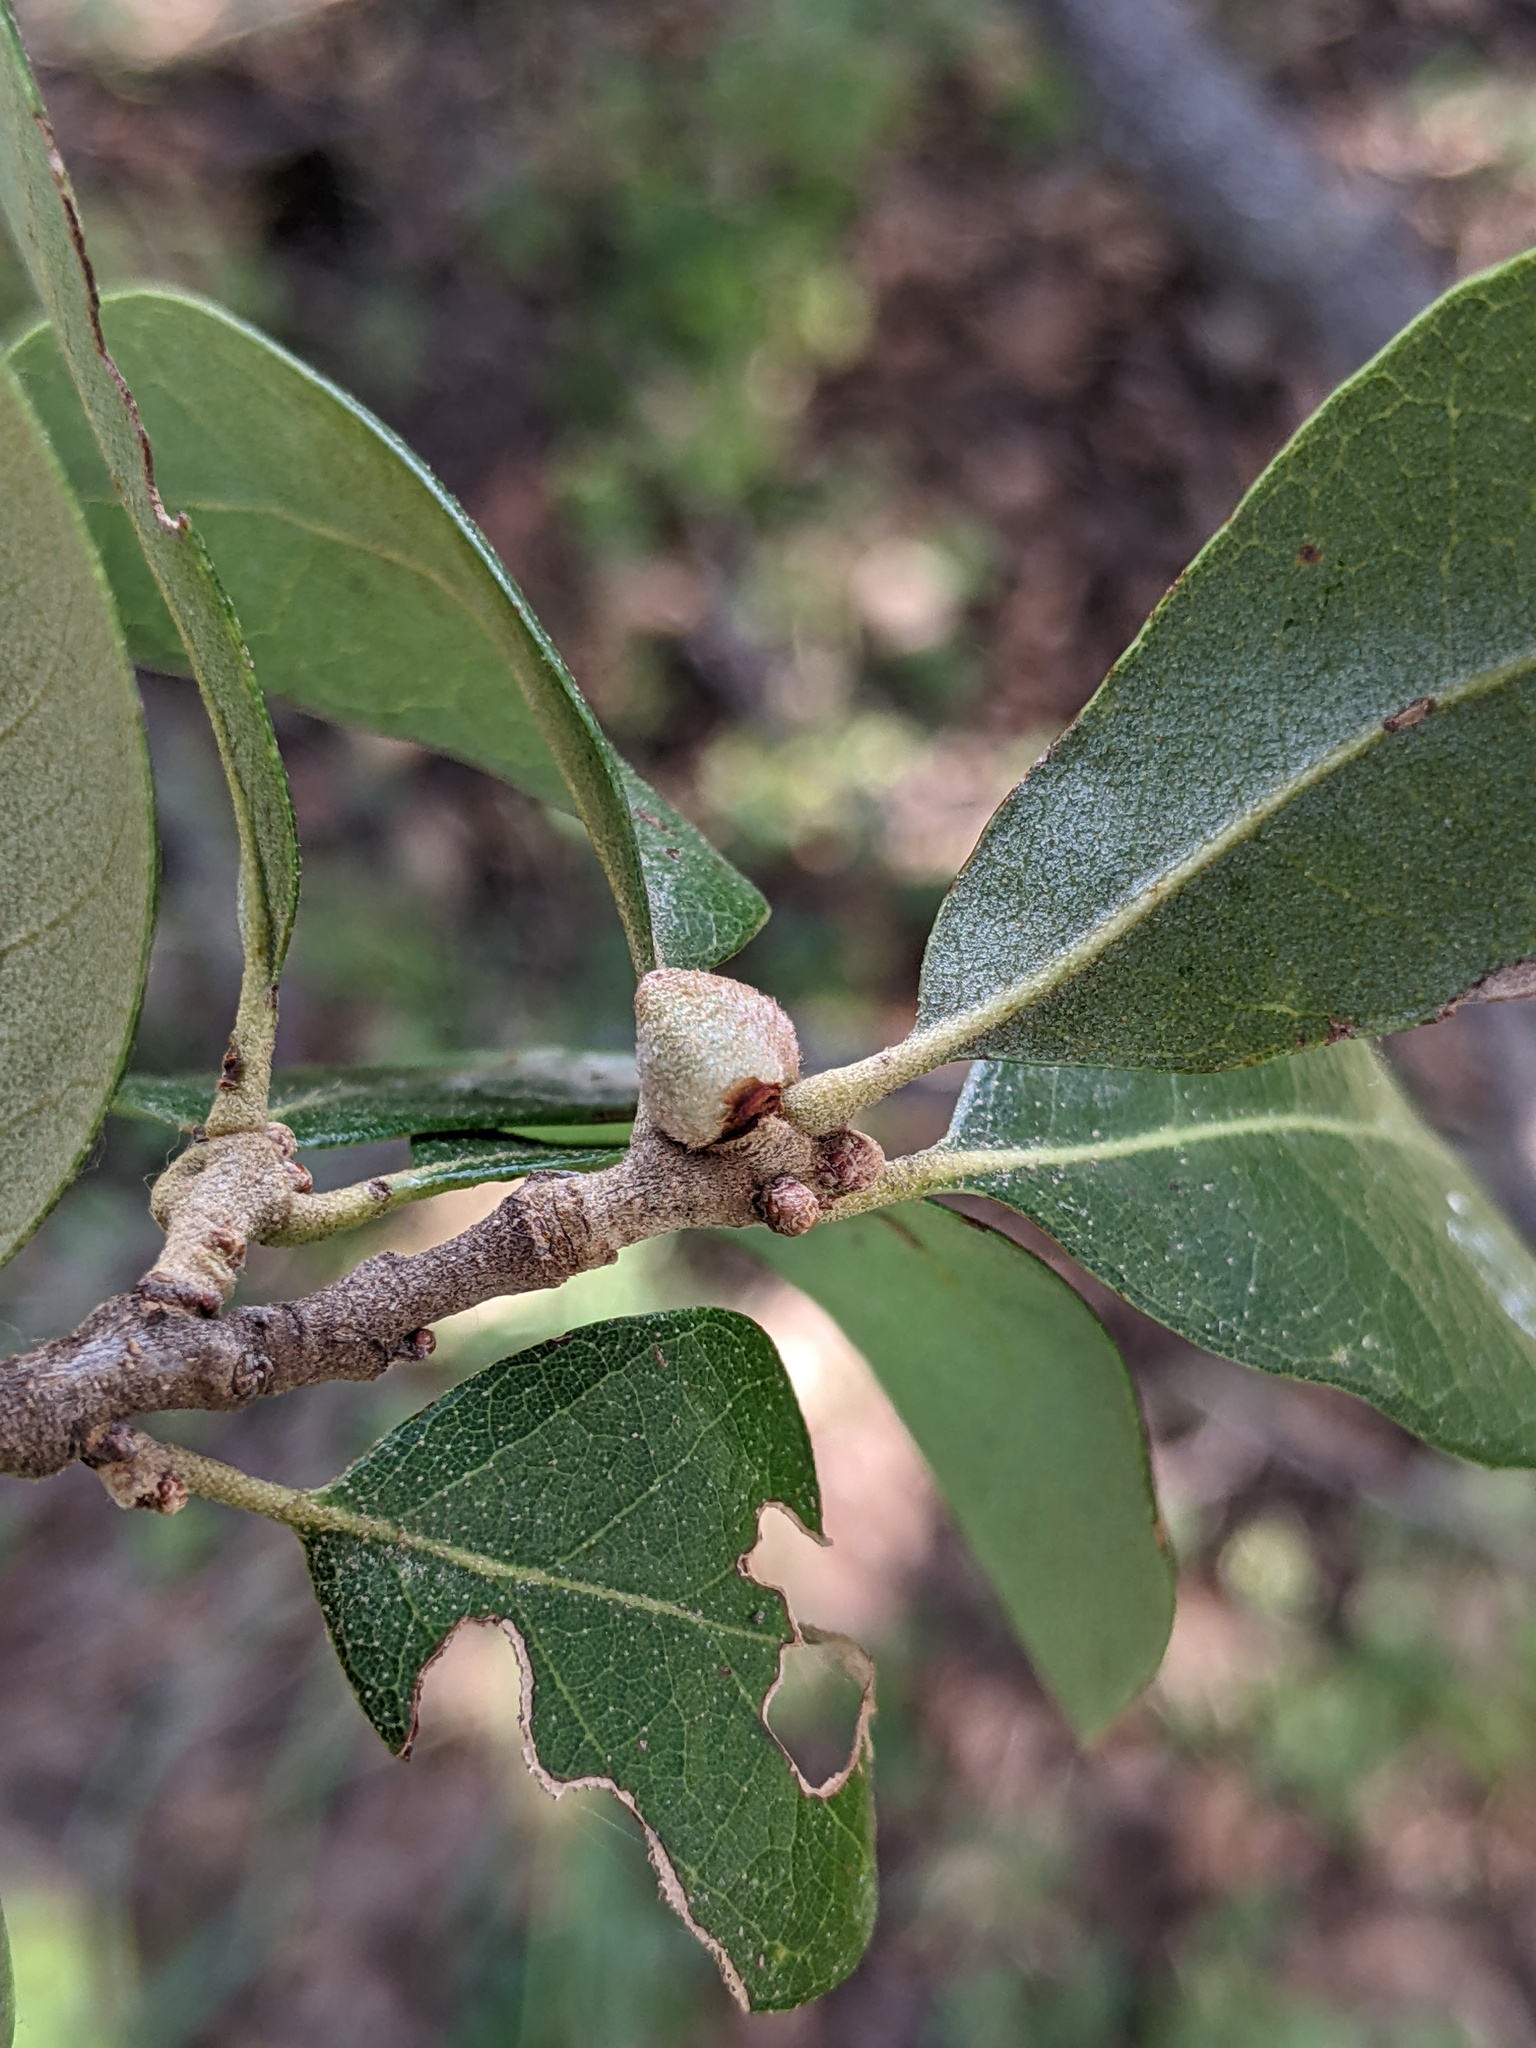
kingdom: Animalia
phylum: Arthropoda
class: Insecta
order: Hymenoptera
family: Cynipidae
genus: Disholcaspis
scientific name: Disholcaspis
